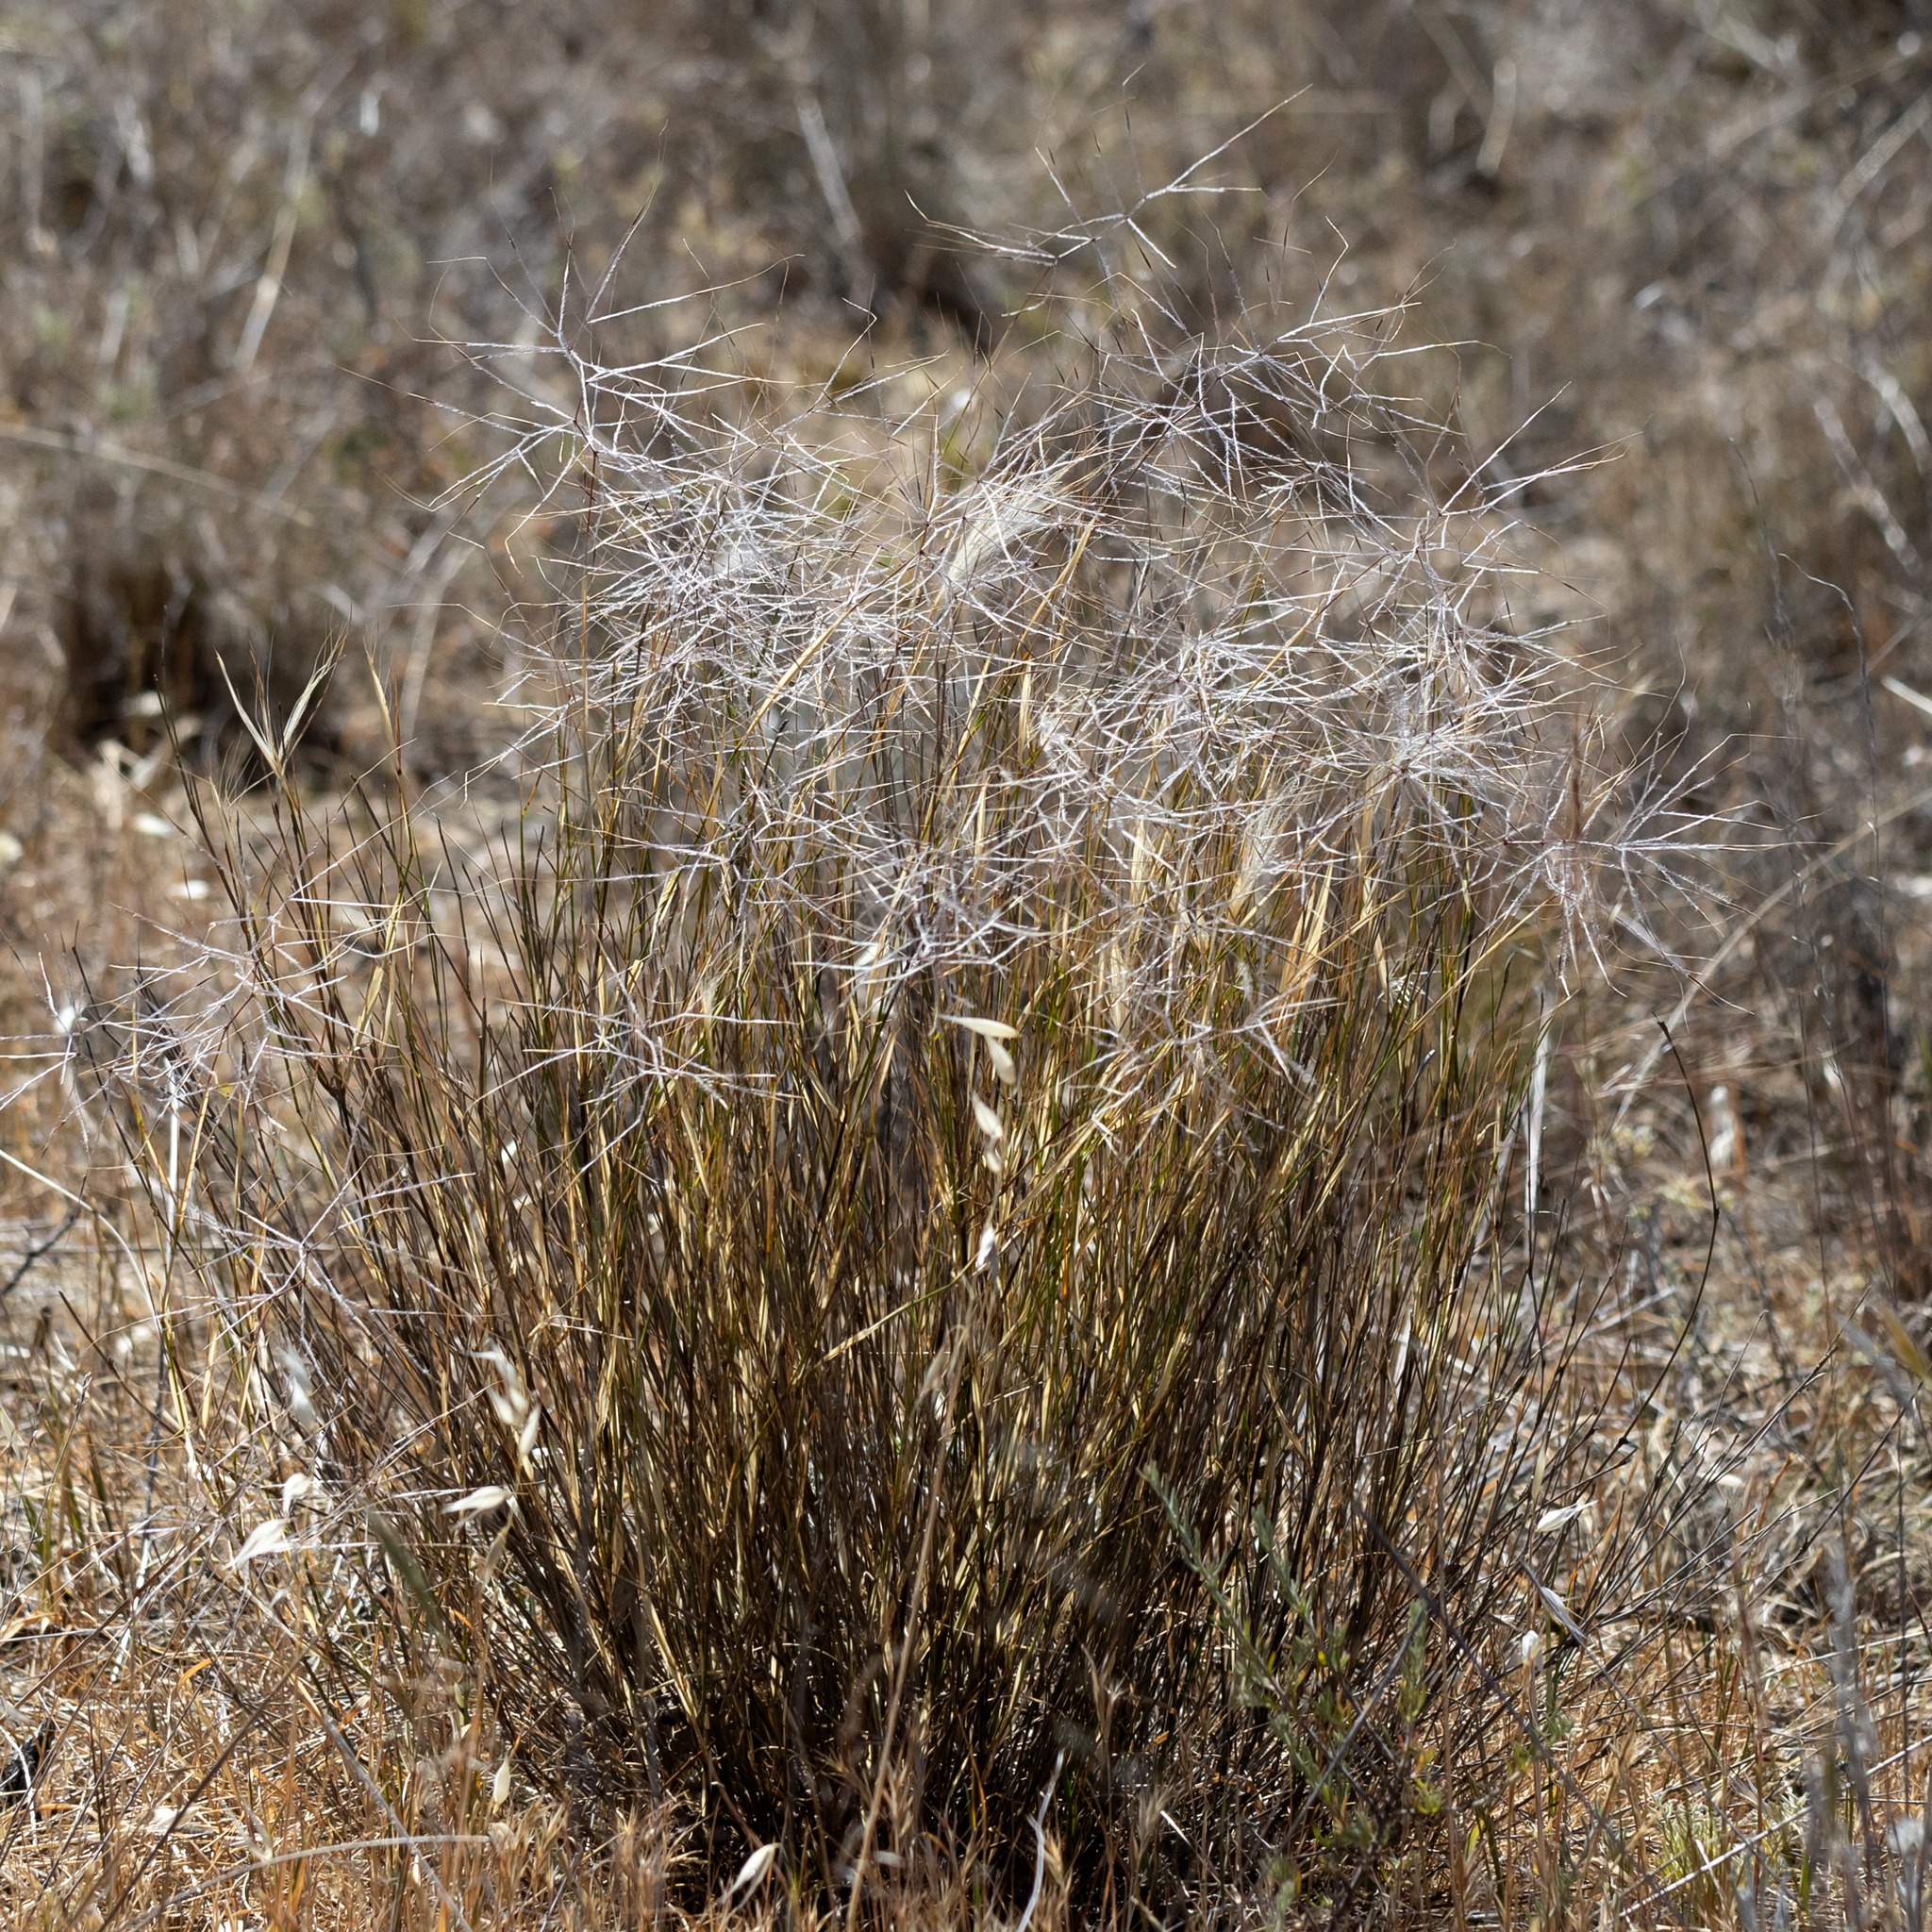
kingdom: Plantae
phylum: Tracheophyta
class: Liliopsida
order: Poales
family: Poaceae
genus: Austrostipa
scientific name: Austrostipa elegantissima
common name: Feather spear grass
